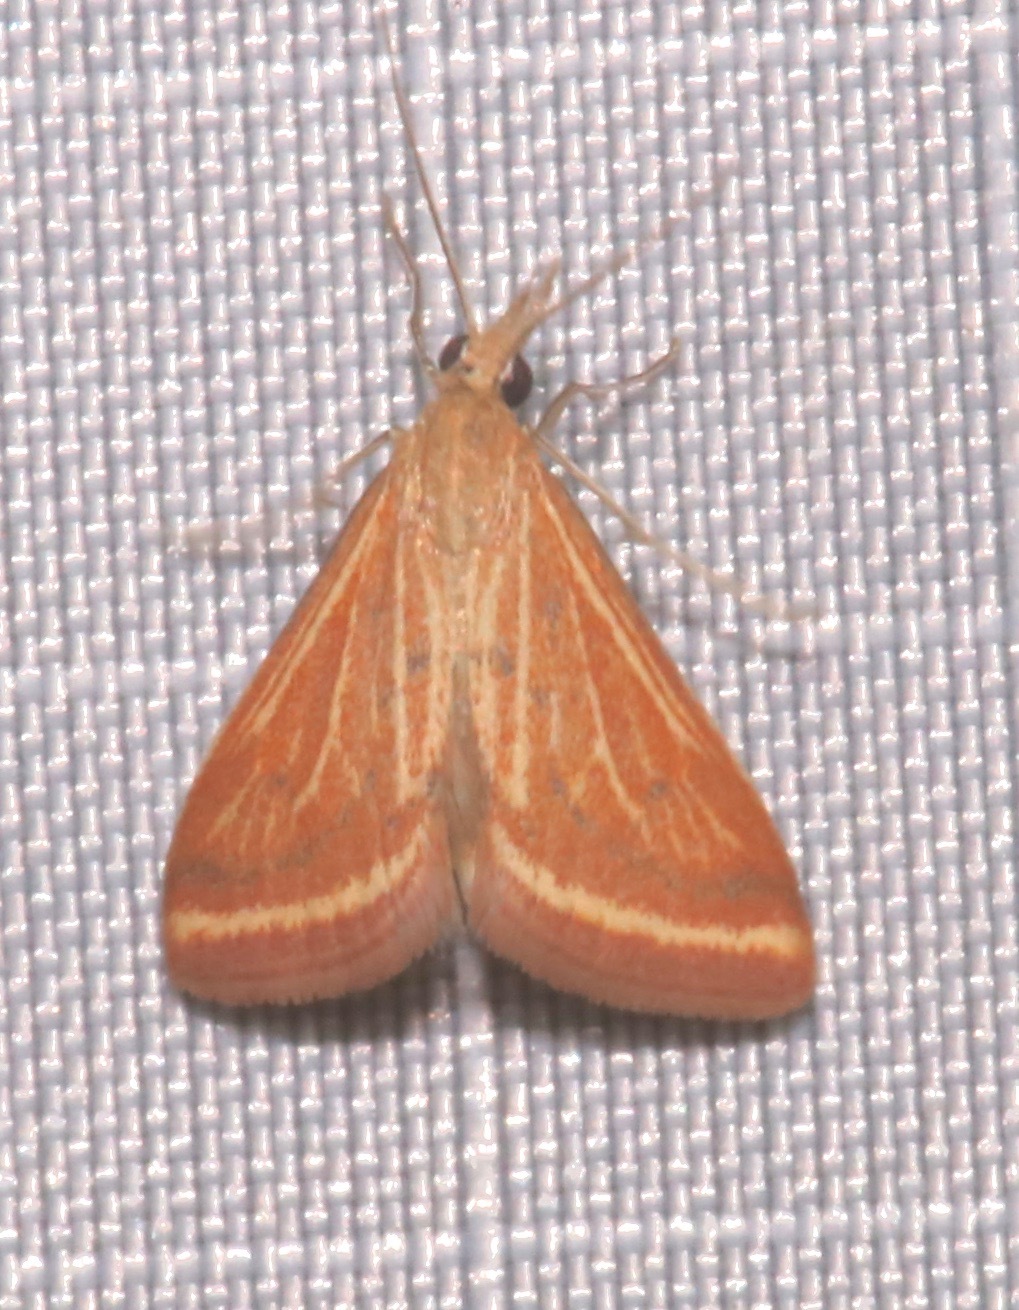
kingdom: Animalia
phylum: Arthropoda
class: Insecta
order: Lepidoptera
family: Crambidae
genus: Microtheoris
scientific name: Microtheoris ophionalis
